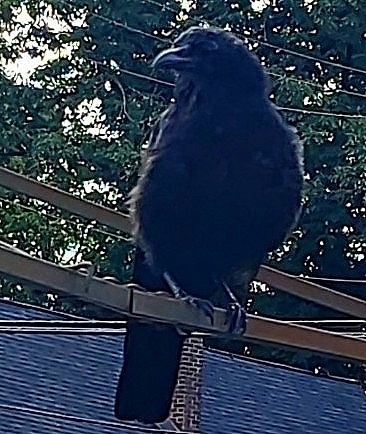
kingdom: Animalia
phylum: Chordata
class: Aves
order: Passeriformes
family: Corvidae
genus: Corvus
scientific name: Corvus brachyrhynchos
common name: American crow
